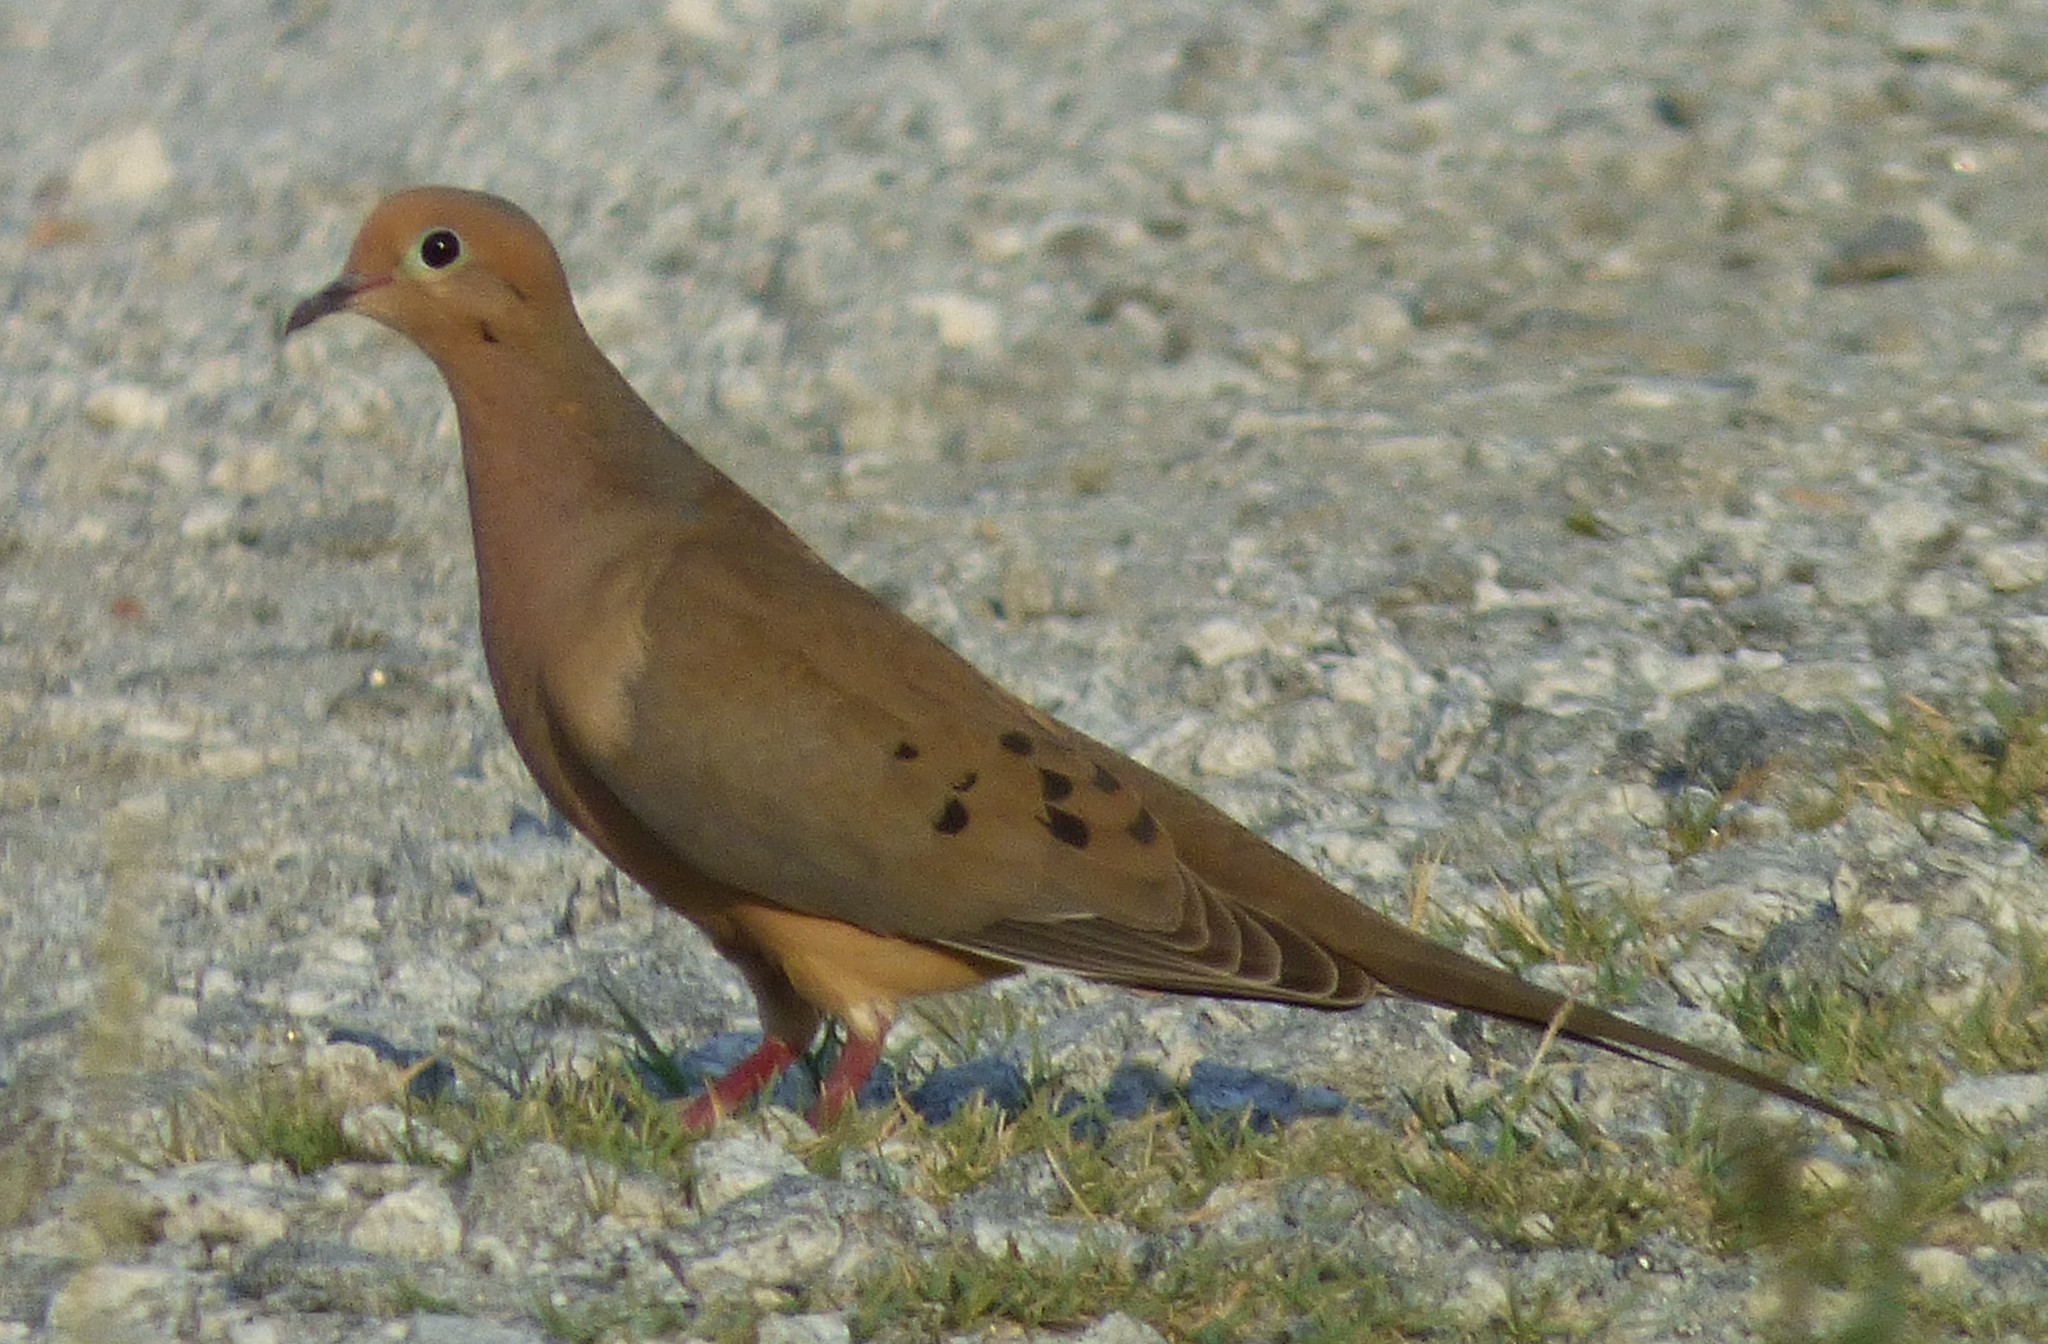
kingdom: Animalia
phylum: Chordata
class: Aves
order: Columbiformes
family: Columbidae
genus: Zenaida
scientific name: Zenaida macroura
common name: Mourning dove
